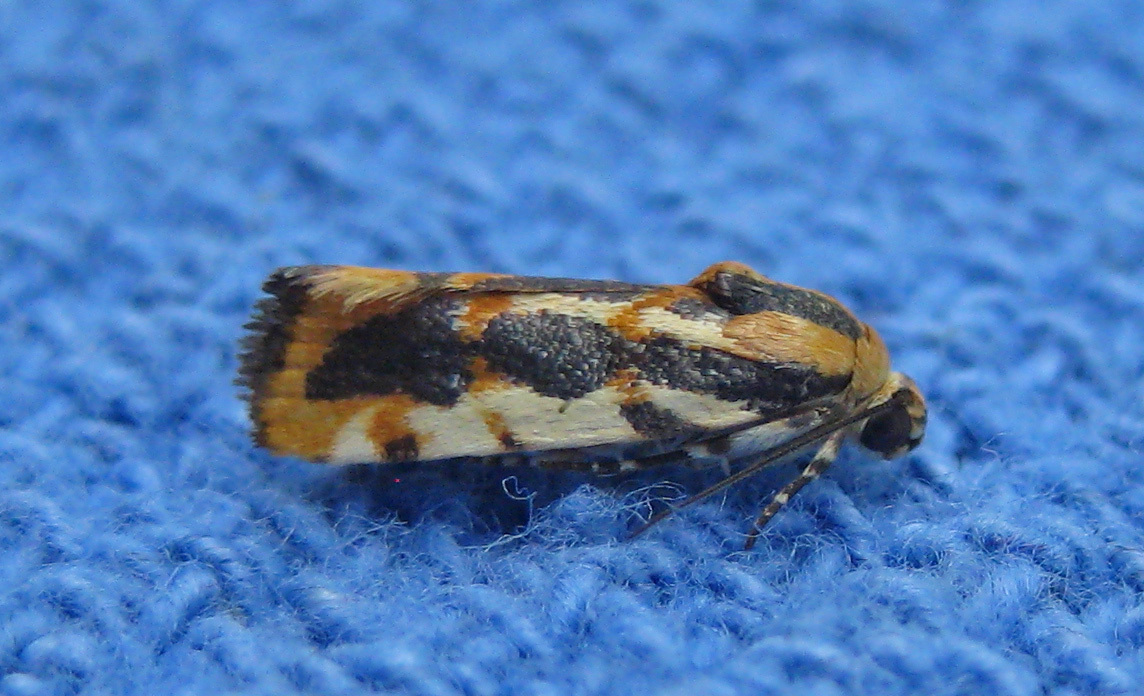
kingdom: Animalia
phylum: Arthropoda
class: Insecta
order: Lepidoptera
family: Noctuidae
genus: Acontia
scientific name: Acontia leo
